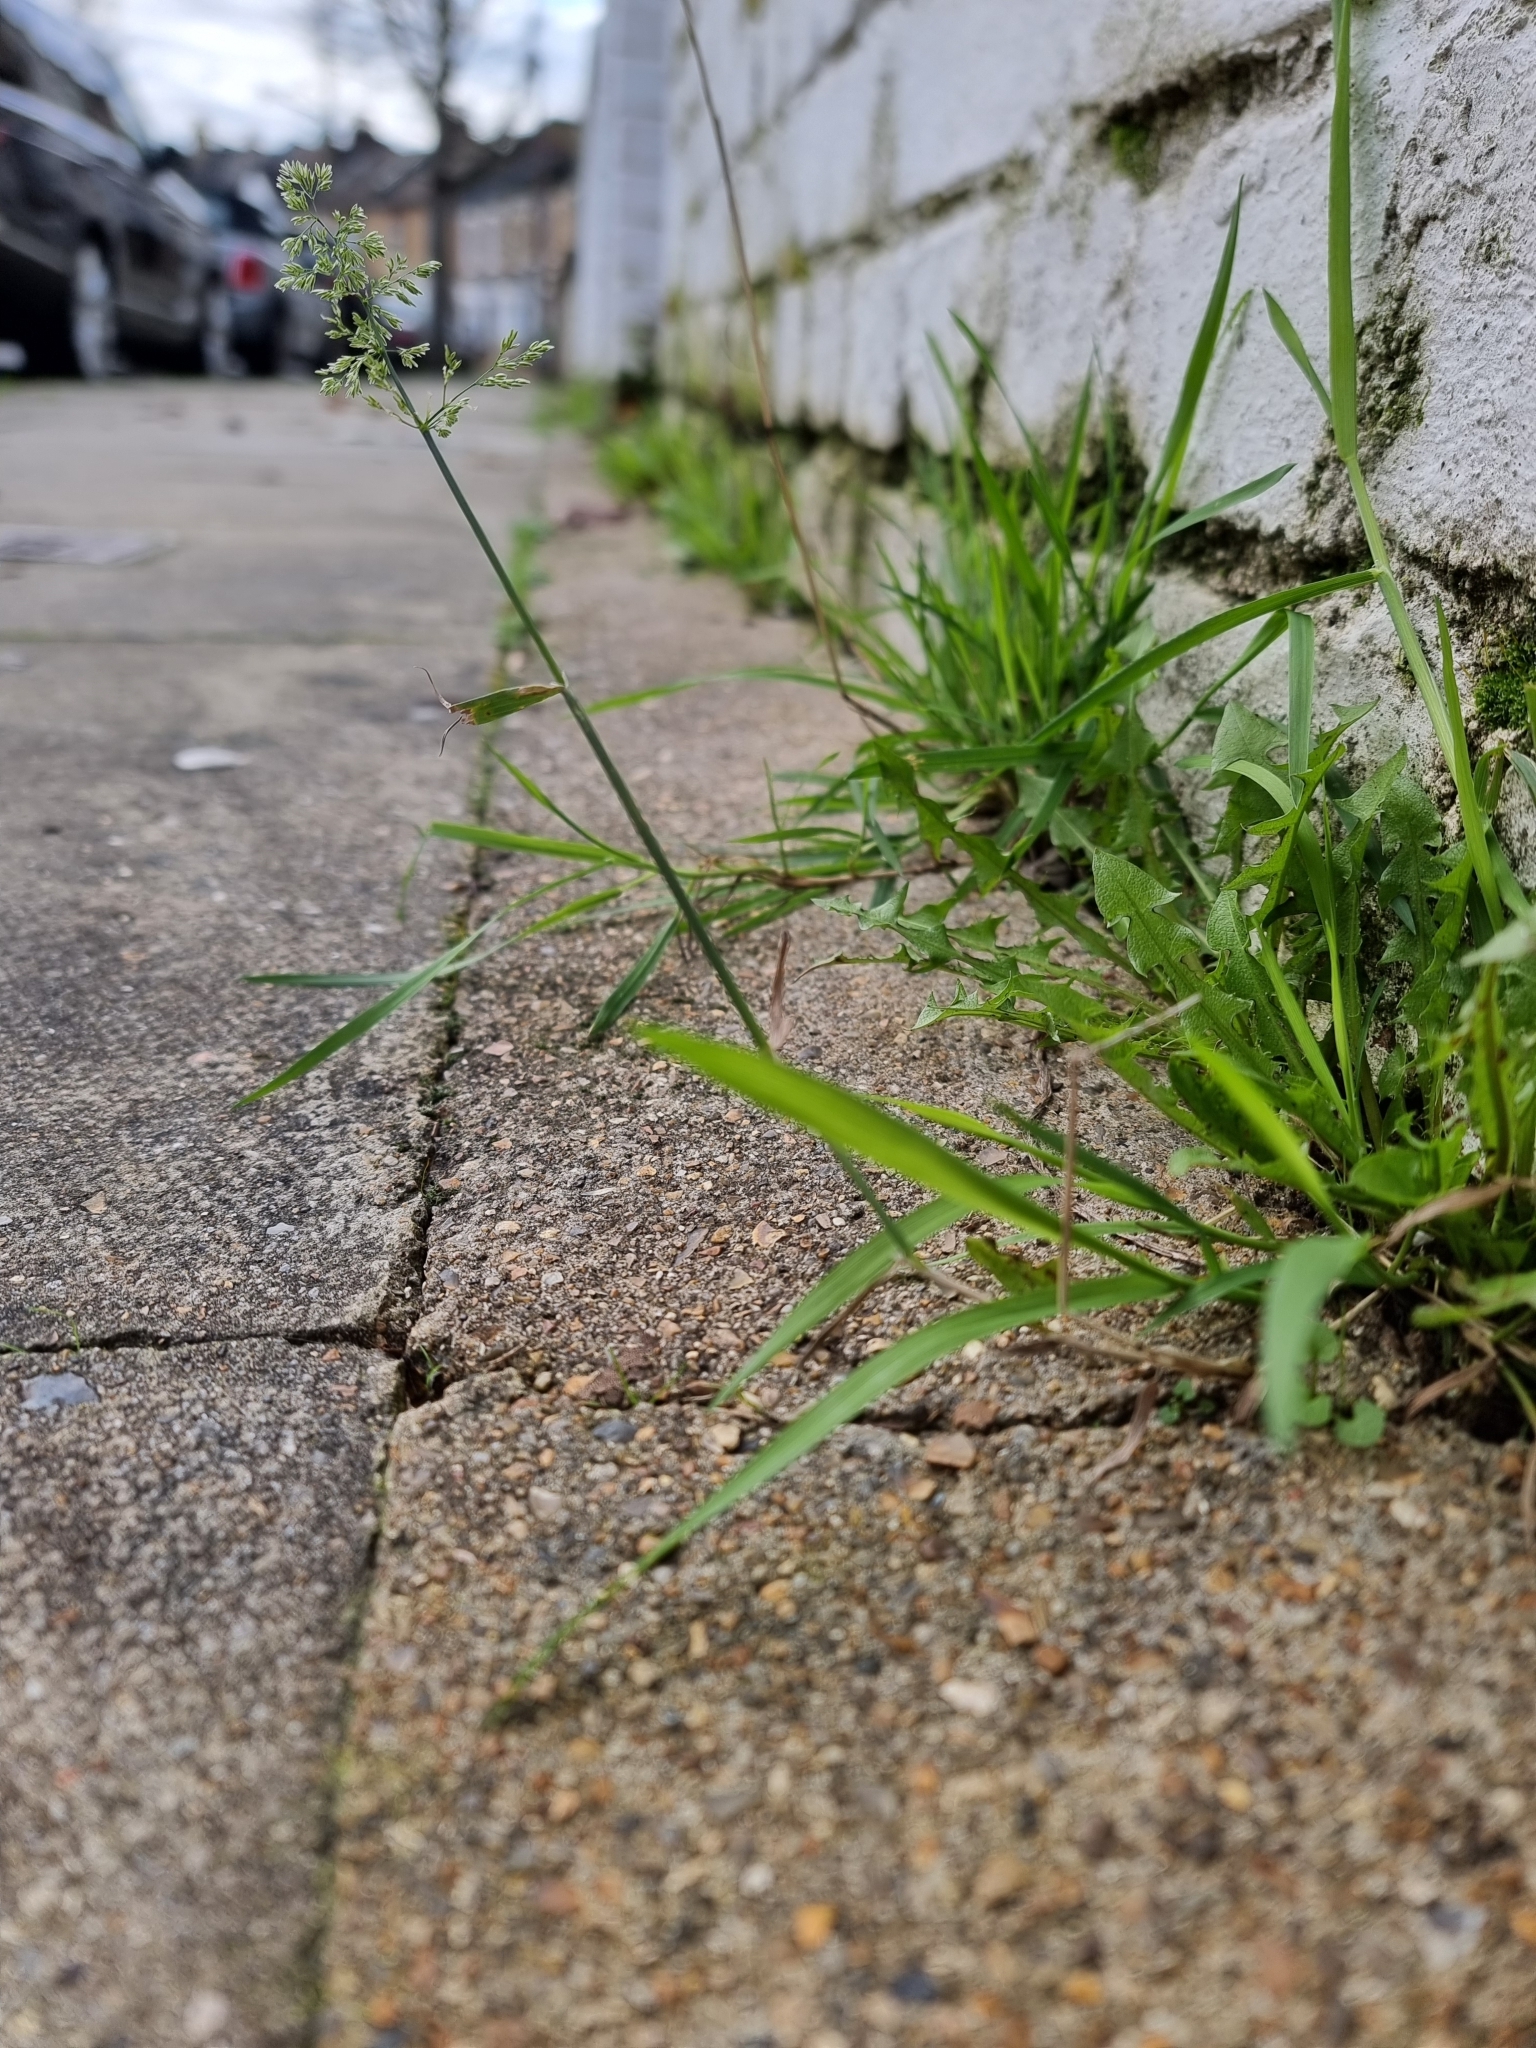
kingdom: Plantae
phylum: Tracheophyta
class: Liliopsida
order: Poales
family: Poaceae
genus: Polypogon
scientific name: Polypogon viridis
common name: Water bent
